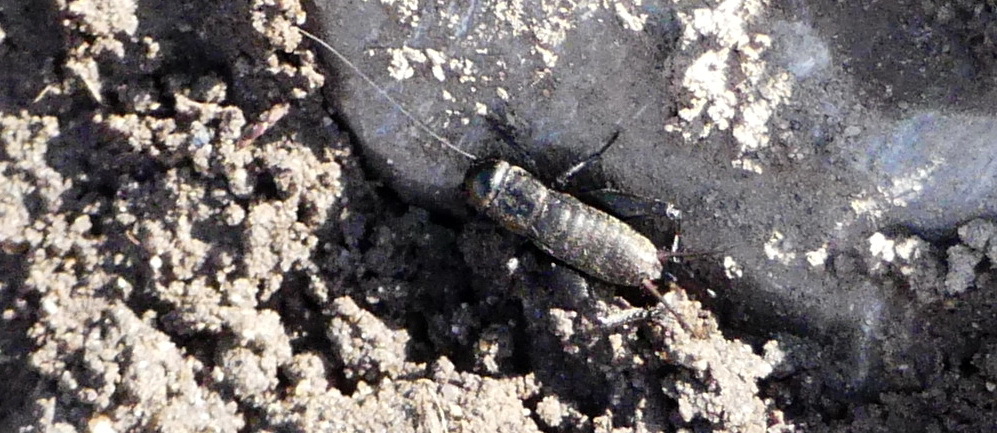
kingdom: Animalia
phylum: Arthropoda
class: Insecta
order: Orthoptera
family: Gryllidae
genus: Gryllus
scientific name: Gryllus veletis
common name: Spring field cricket
